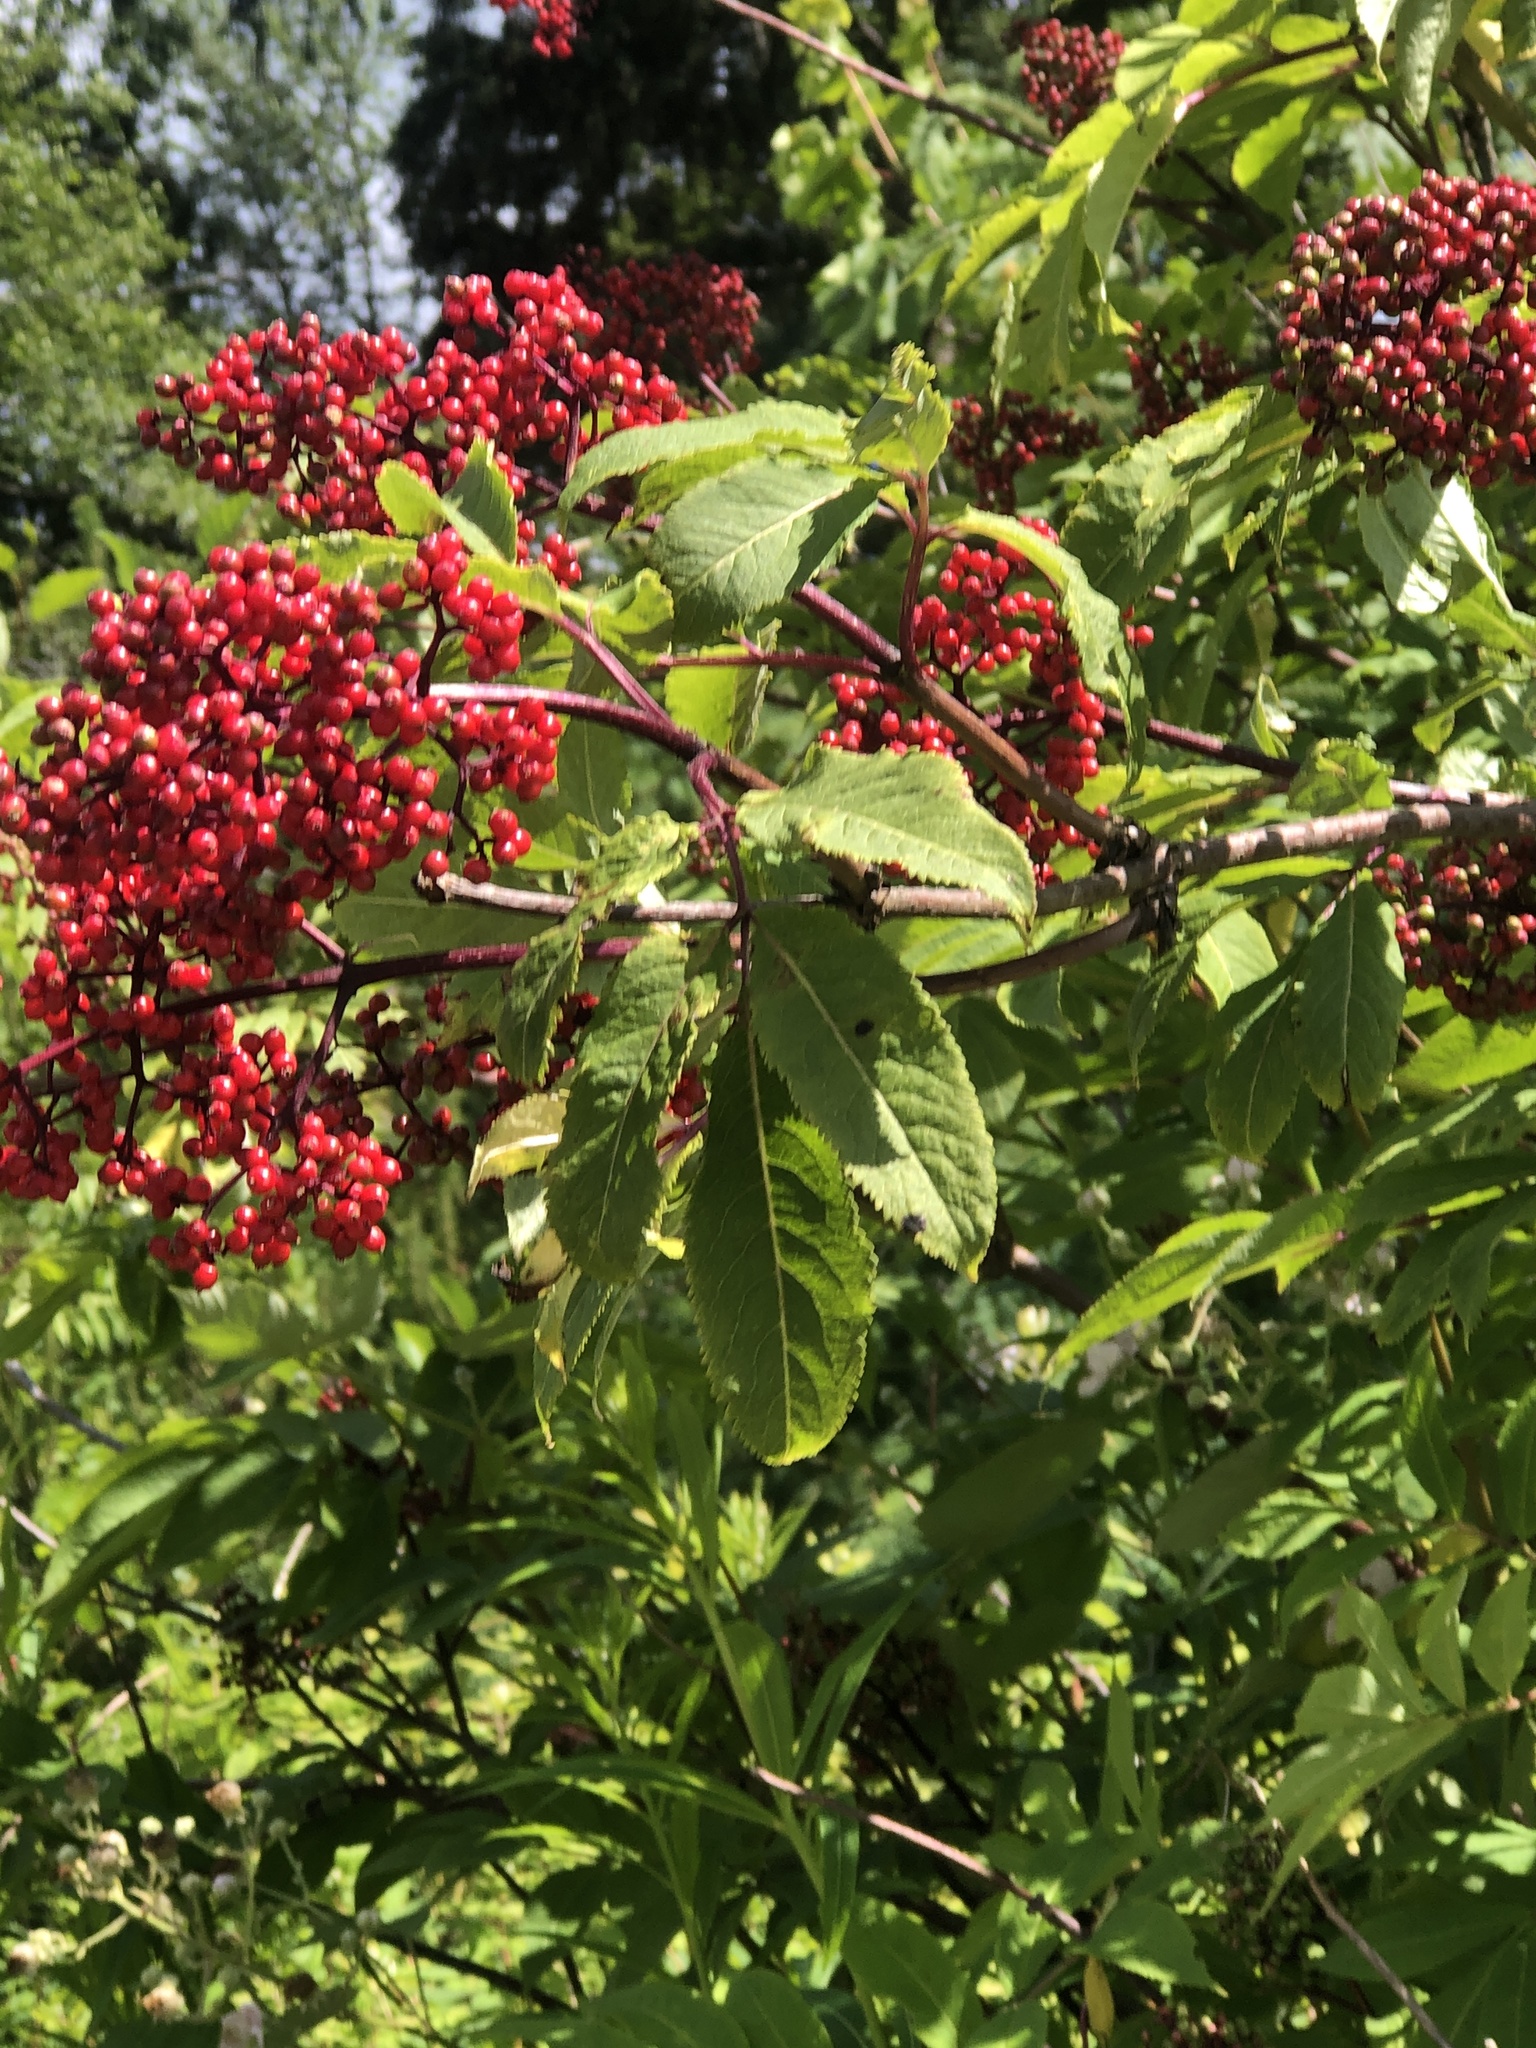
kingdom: Plantae
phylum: Tracheophyta
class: Magnoliopsida
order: Dipsacales
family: Viburnaceae
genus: Sambucus
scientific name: Sambucus racemosa
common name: Red-berried elder
